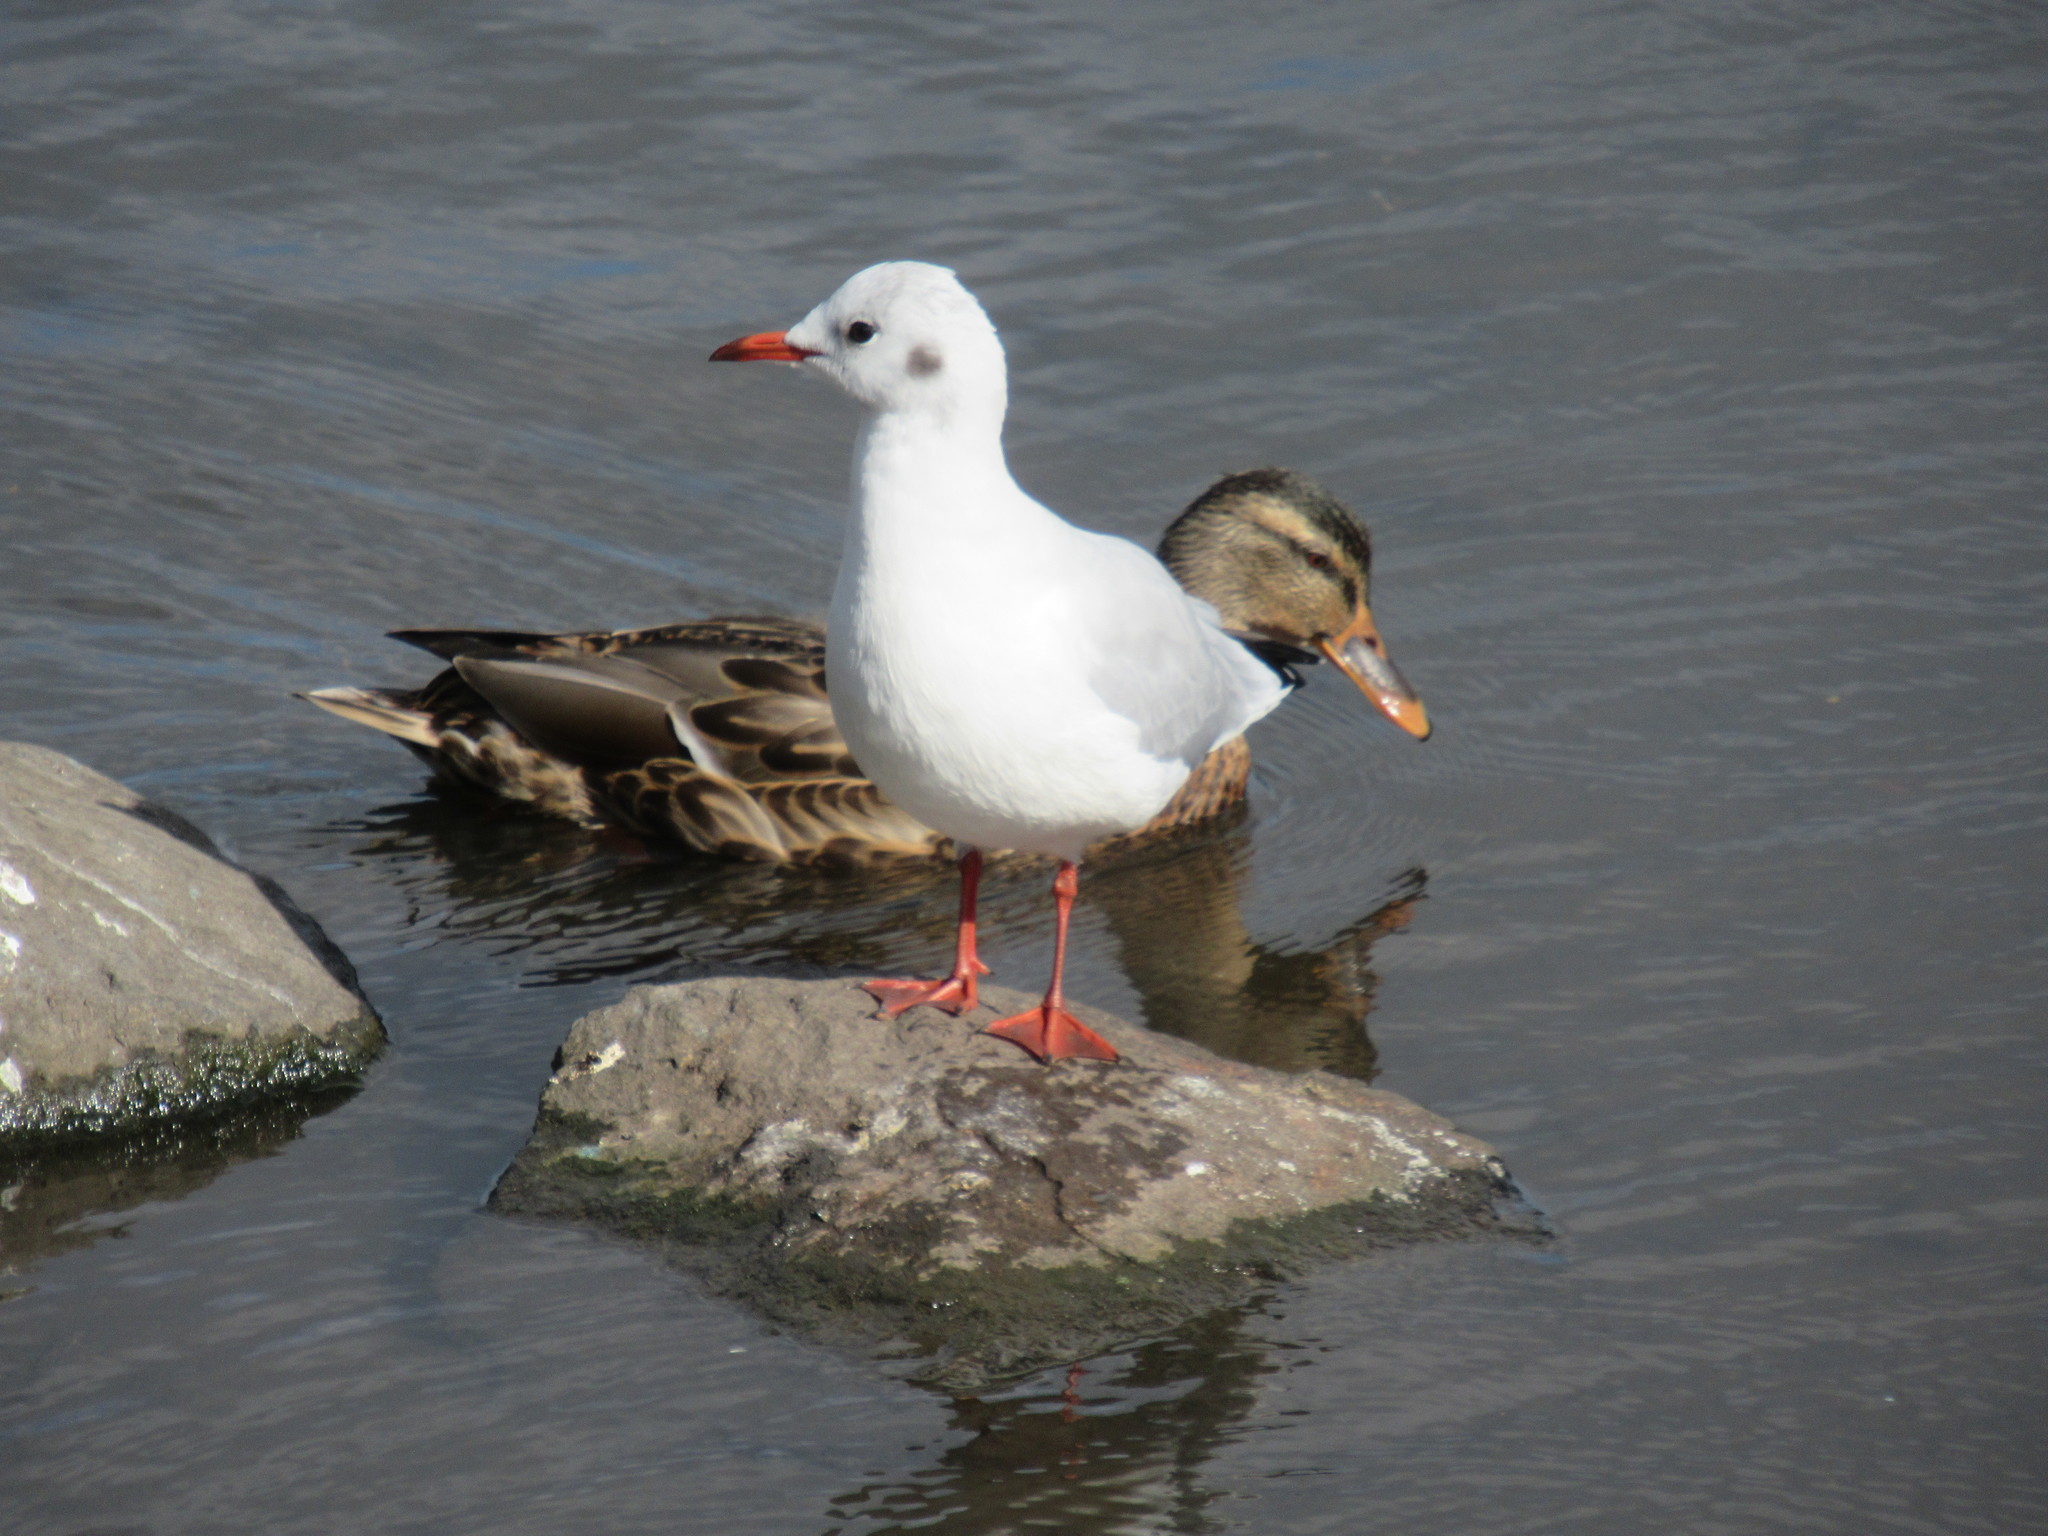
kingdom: Animalia
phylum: Chordata
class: Aves
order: Charadriiformes
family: Laridae
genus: Chroicocephalus
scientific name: Chroicocephalus ridibundus
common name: Black-headed gull
